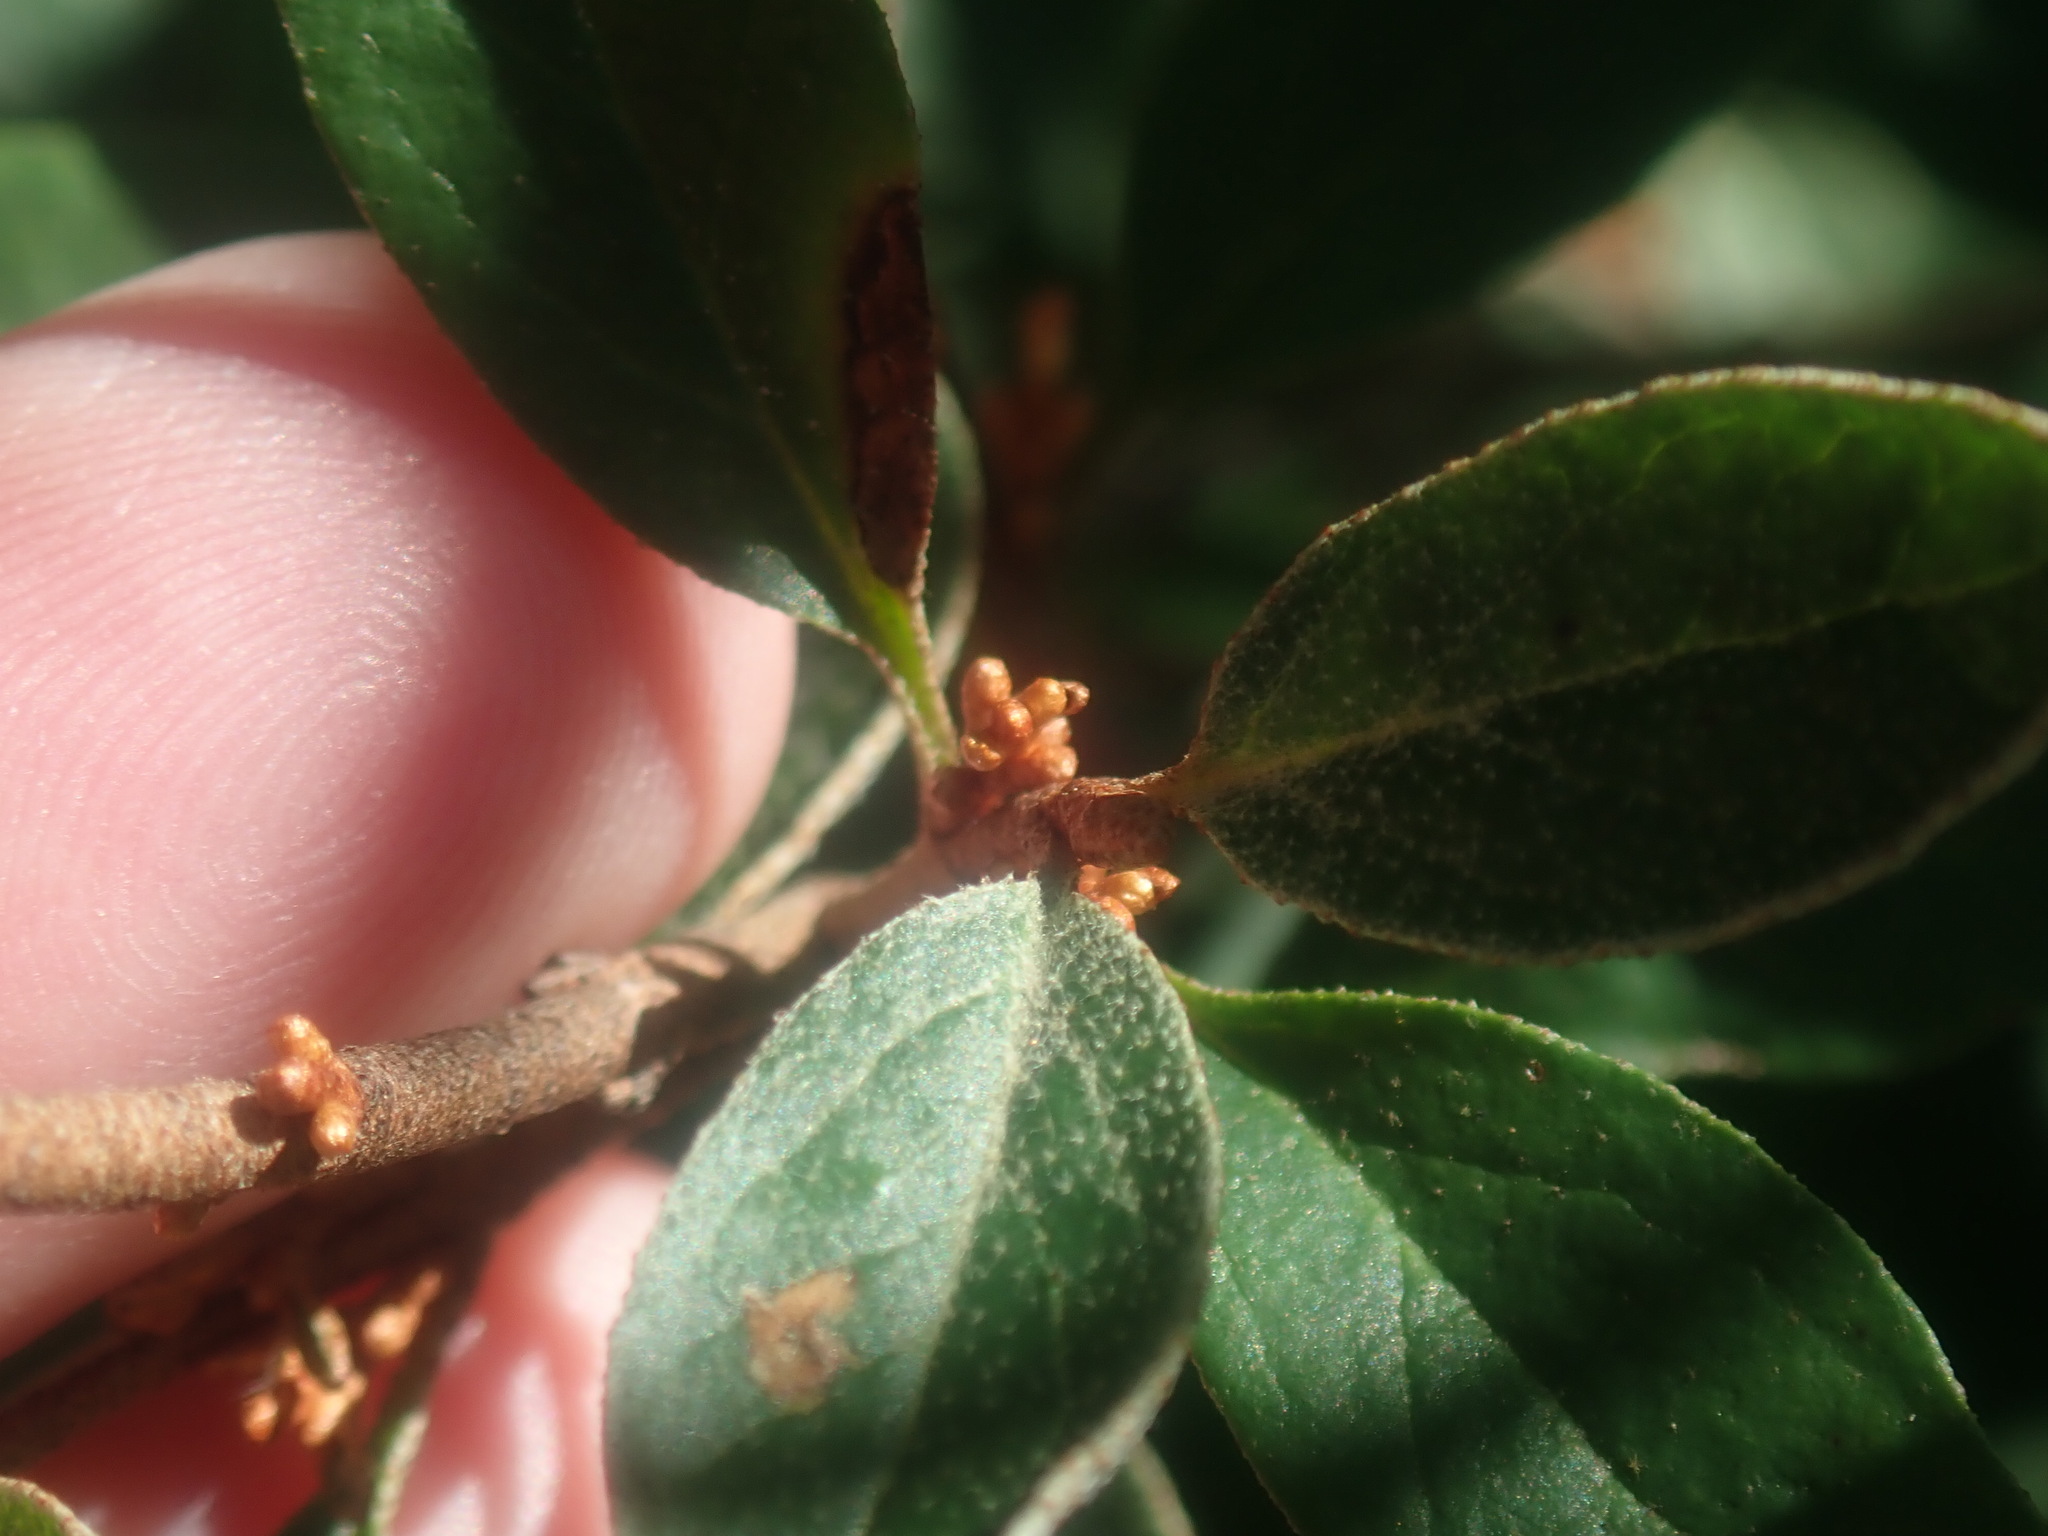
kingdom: Plantae
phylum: Tracheophyta
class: Magnoliopsida
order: Rosales
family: Elaeagnaceae
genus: Shepherdia
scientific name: Shepherdia canadensis
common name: Soapberry
